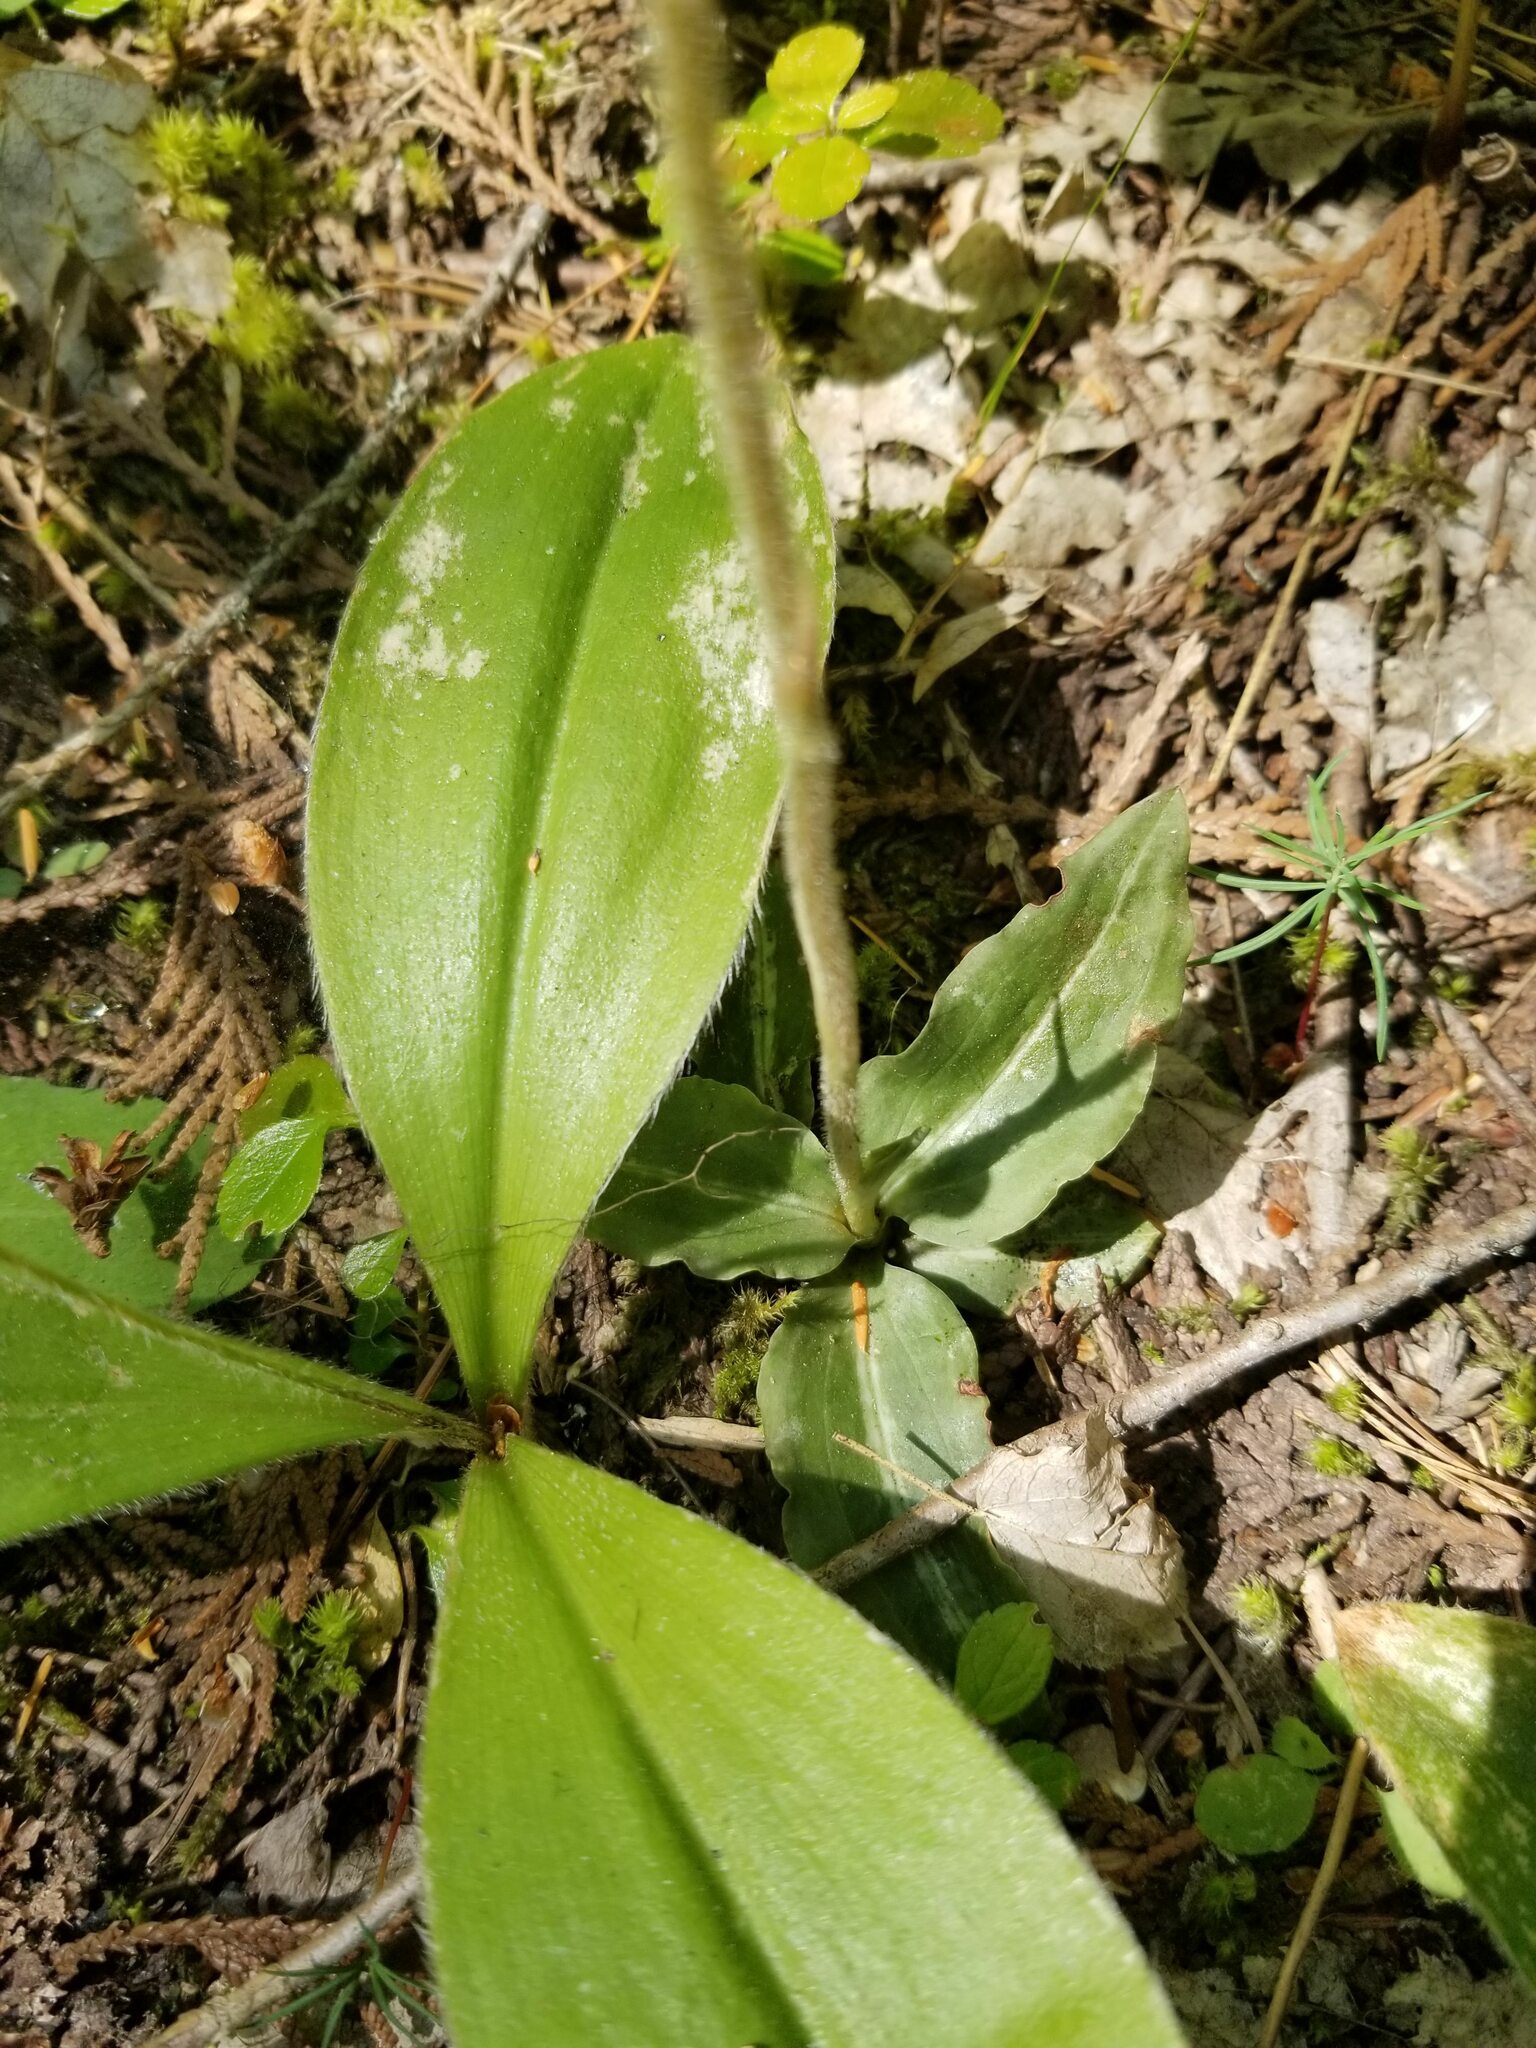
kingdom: Plantae
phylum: Tracheophyta
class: Liliopsida
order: Asparagales
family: Orchidaceae
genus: Goodyera
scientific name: Goodyera oblongifolia
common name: Giant rattlesnake-plantain
